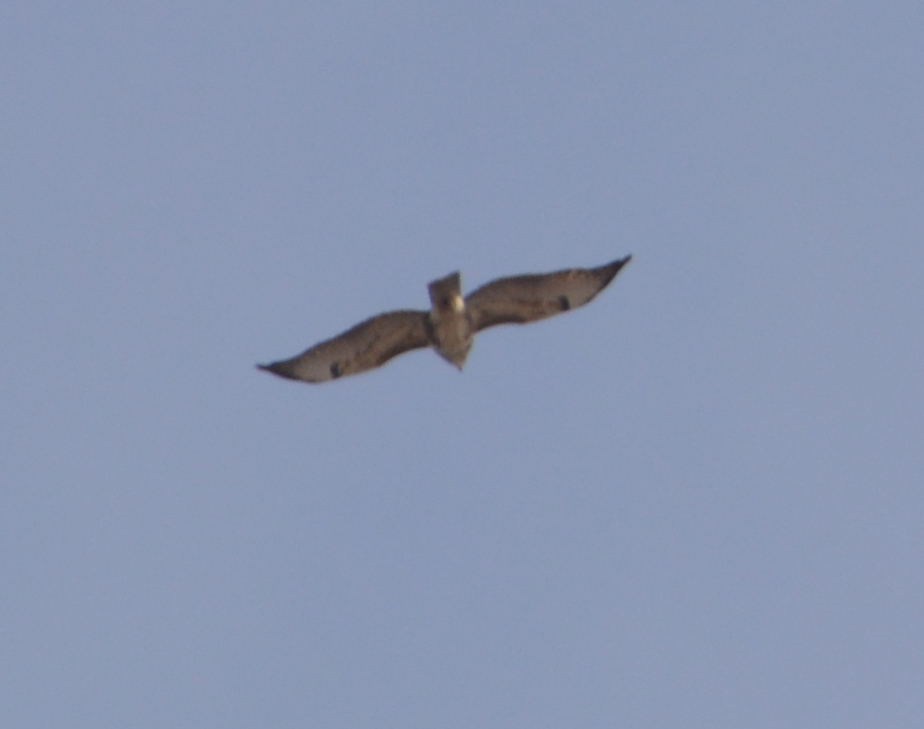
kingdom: Animalia
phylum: Chordata
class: Aves
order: Accipitriformes
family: Accipitridae
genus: Buteo
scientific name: Buteo buteo
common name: Common buzzard
